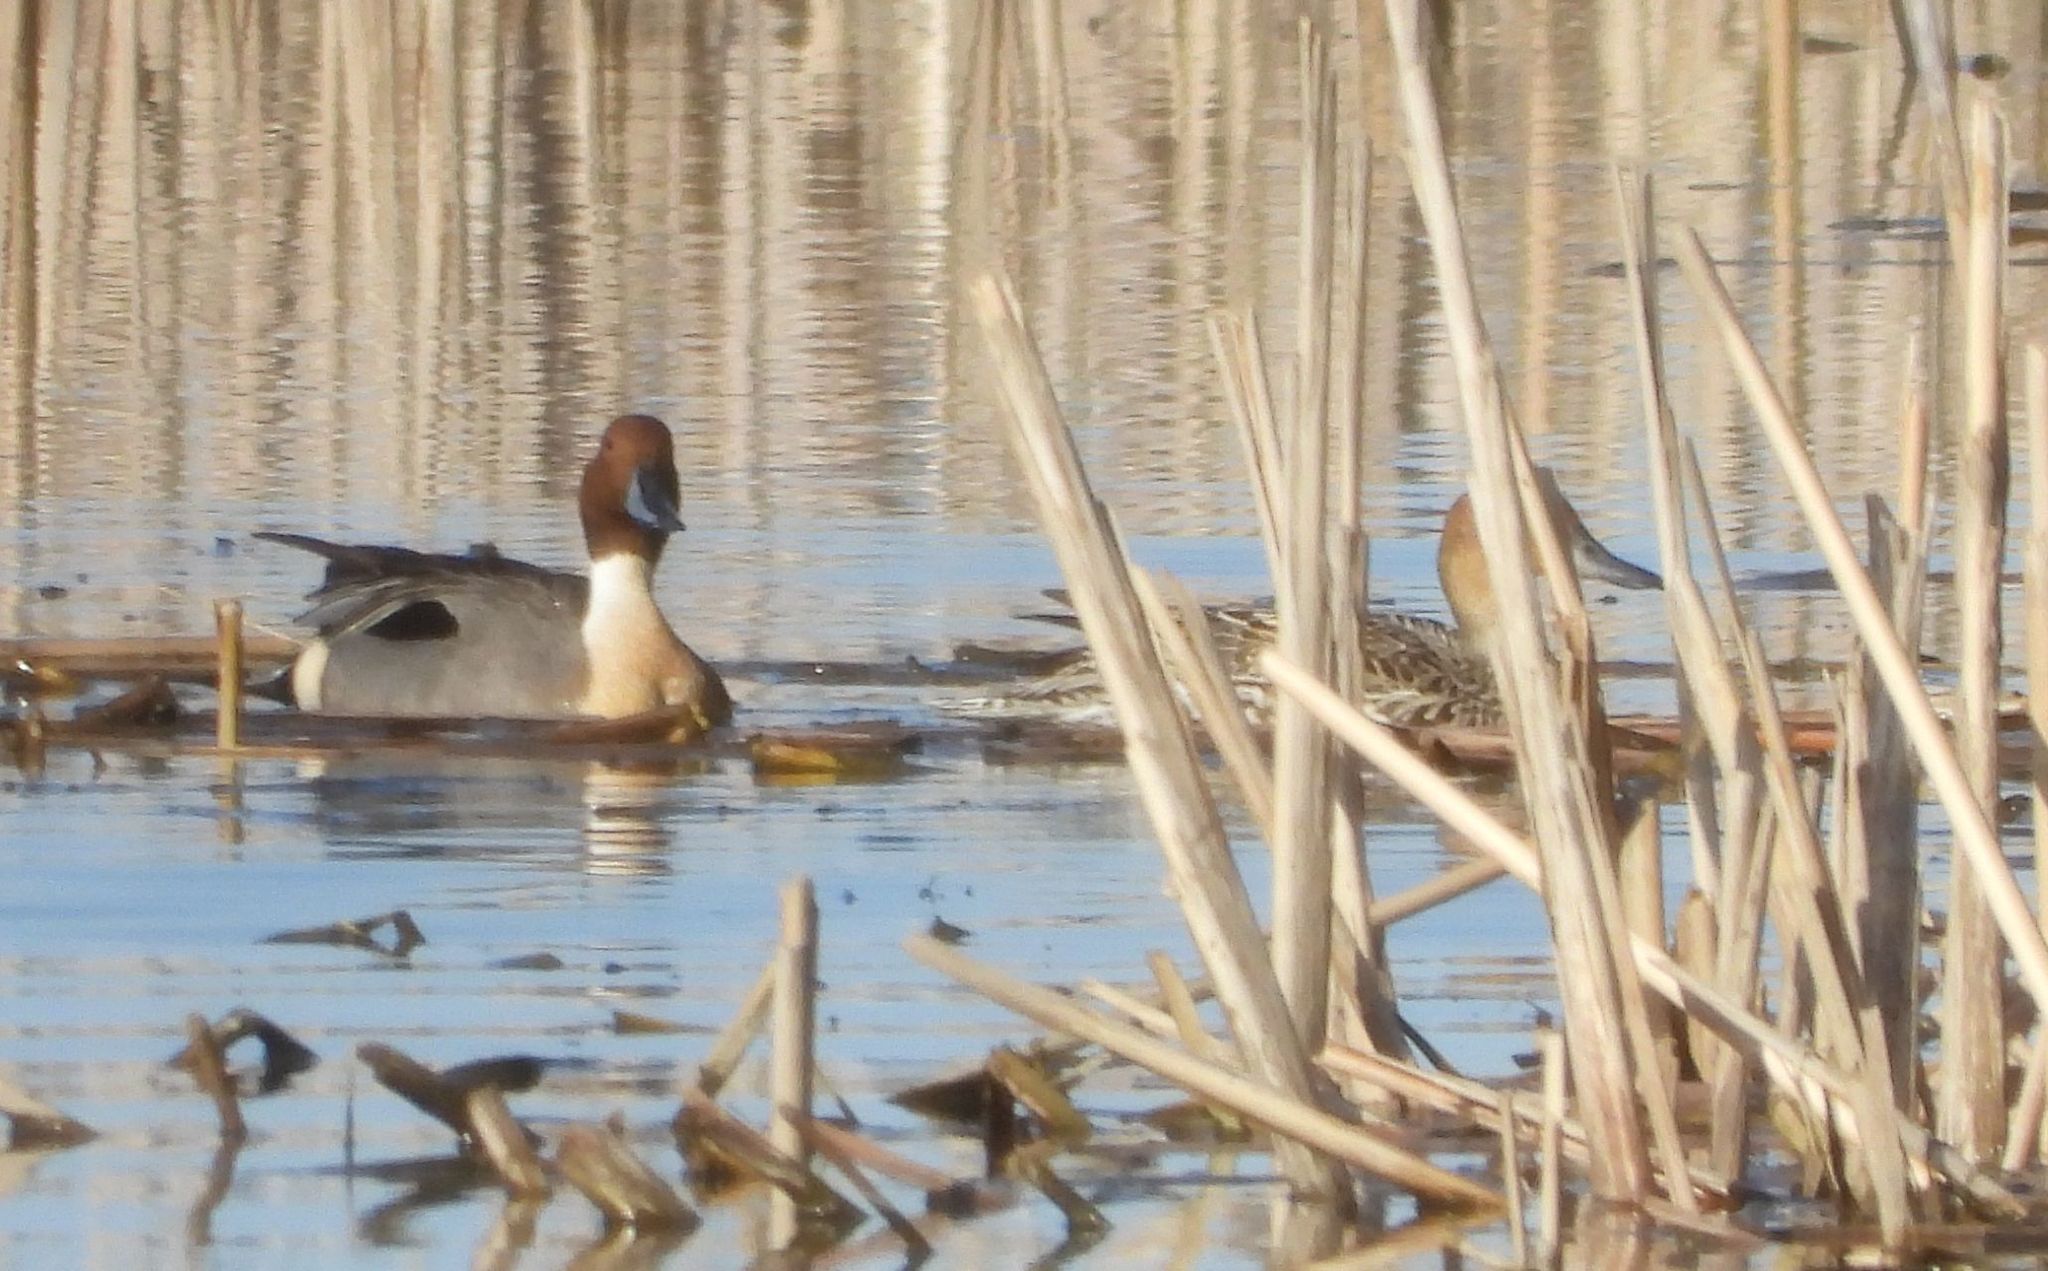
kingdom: Animalia
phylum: Chordata
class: Aves
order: Anseriformes
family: Anatidae
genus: Anas
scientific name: Anas acuta
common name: Northern pintail
